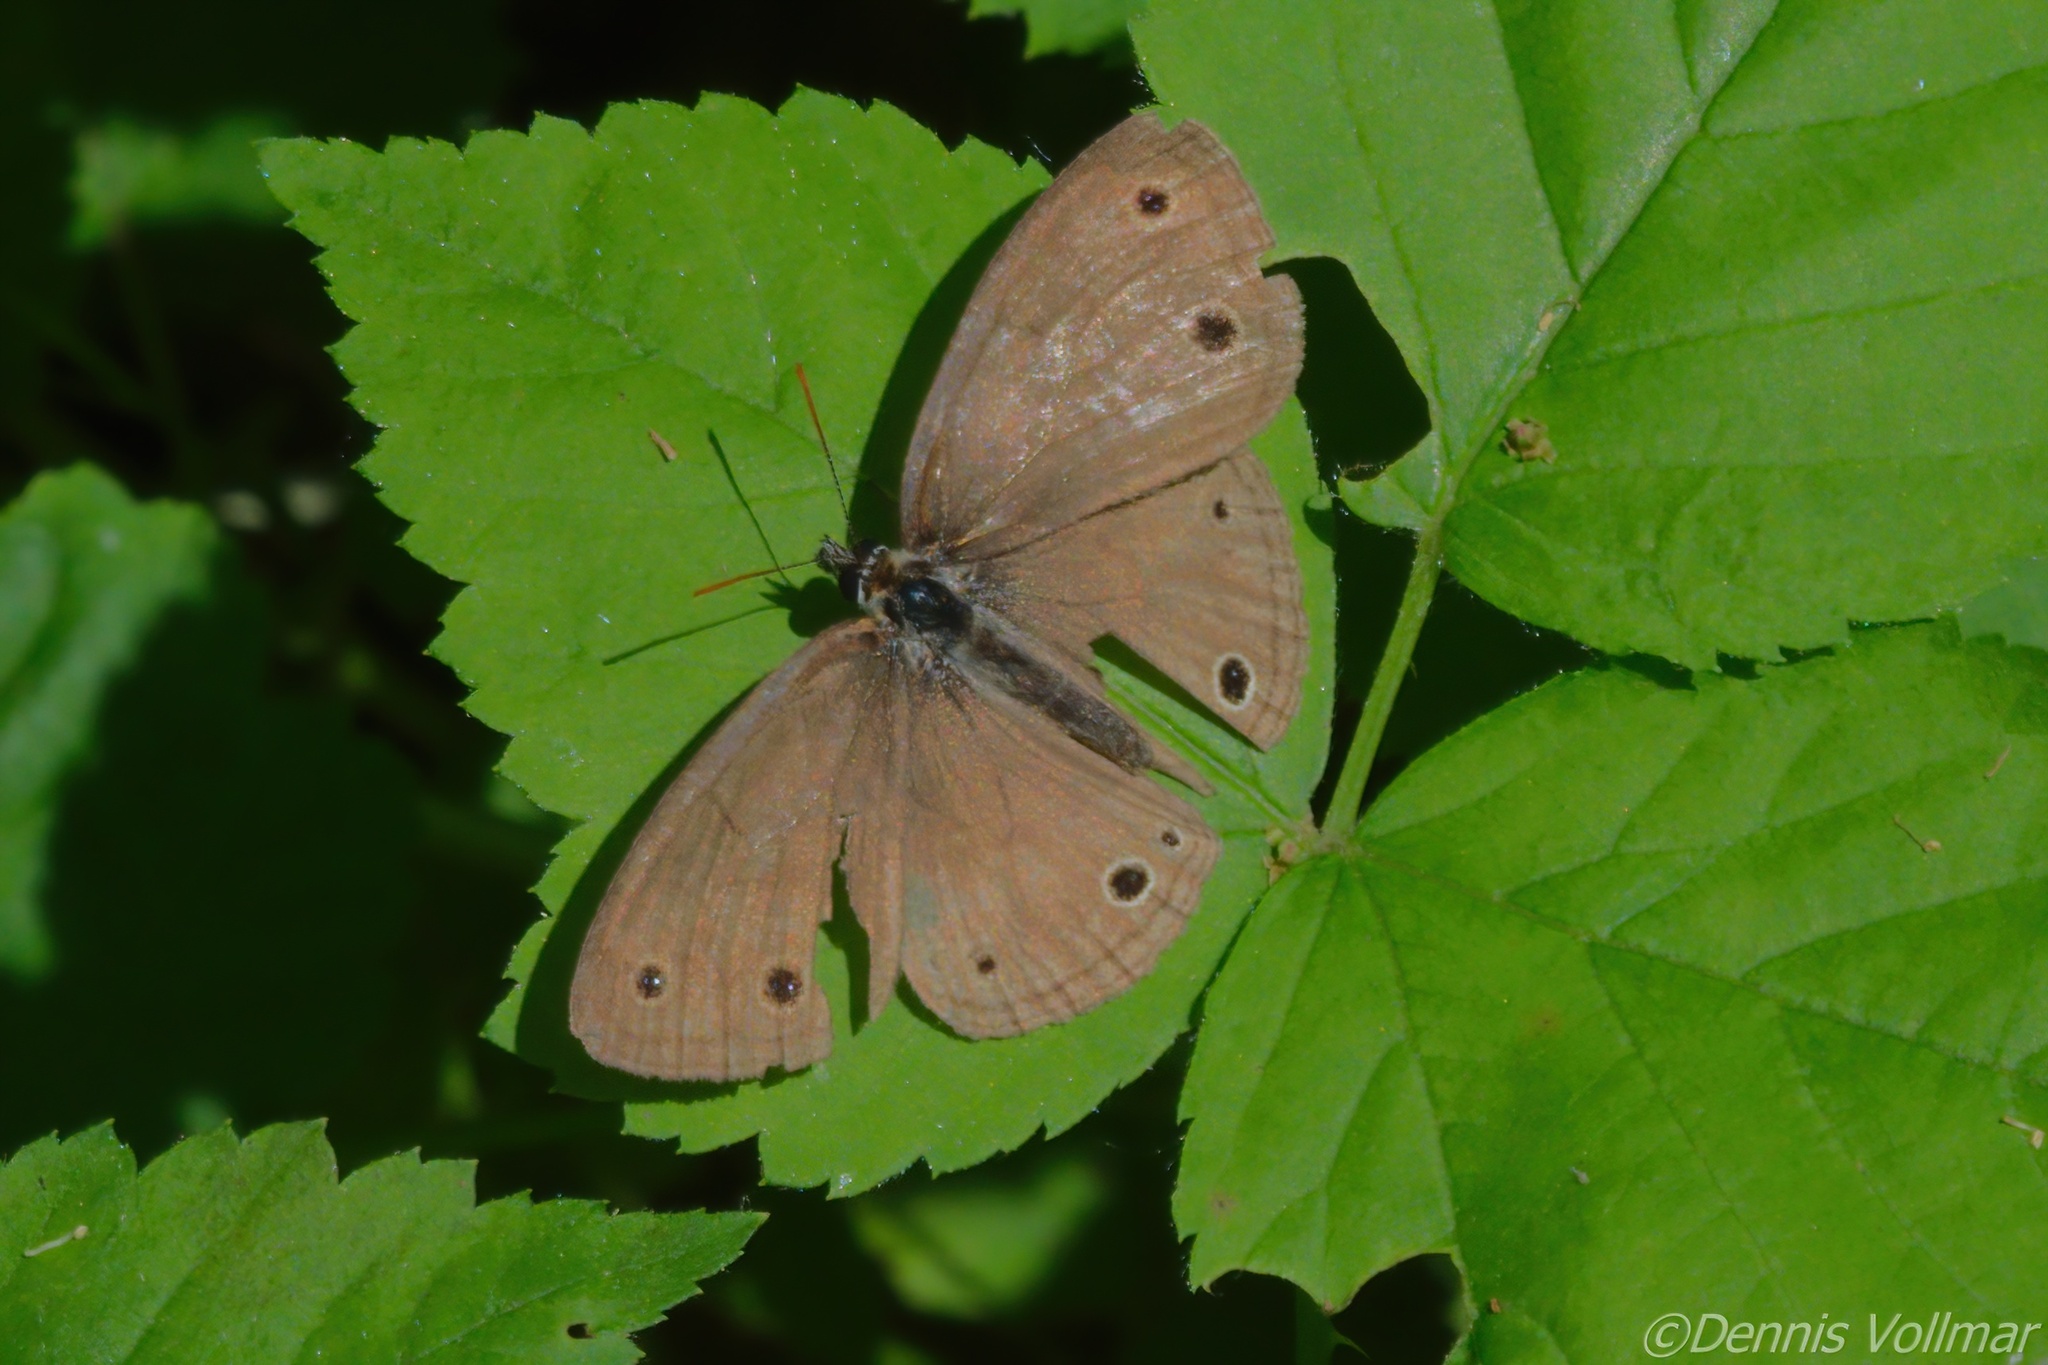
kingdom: Animalia
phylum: Arthropoda
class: Insecta
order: Lepidoptera
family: Nymphalidae
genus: Euptychia
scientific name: Euptychia cymela
